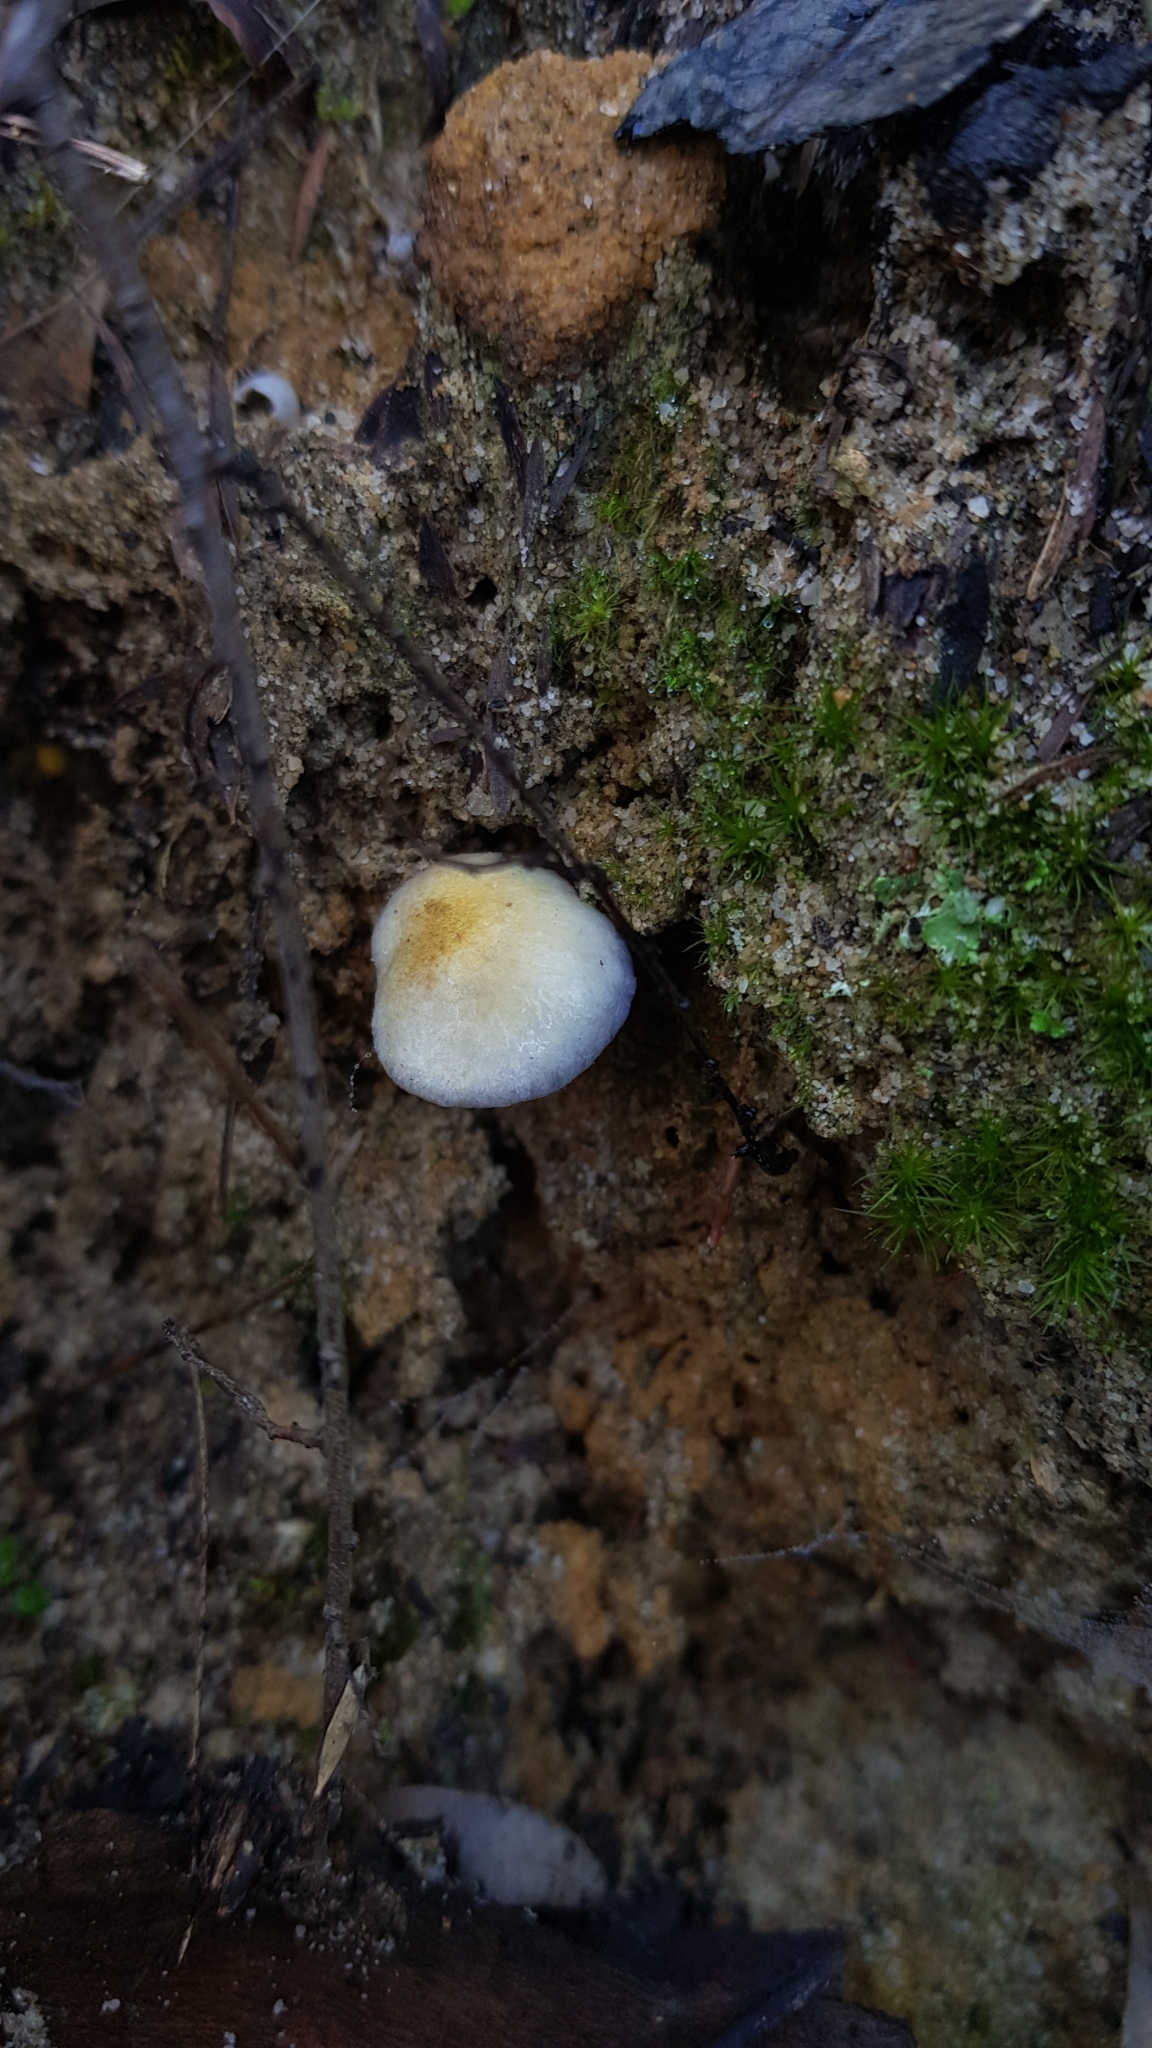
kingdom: Fungi
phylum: Basidiomycota
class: Agaricomycetes
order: Agaricales
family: Cortinariaceae
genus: Cortinarius
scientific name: Cortinarius rotundisporus
